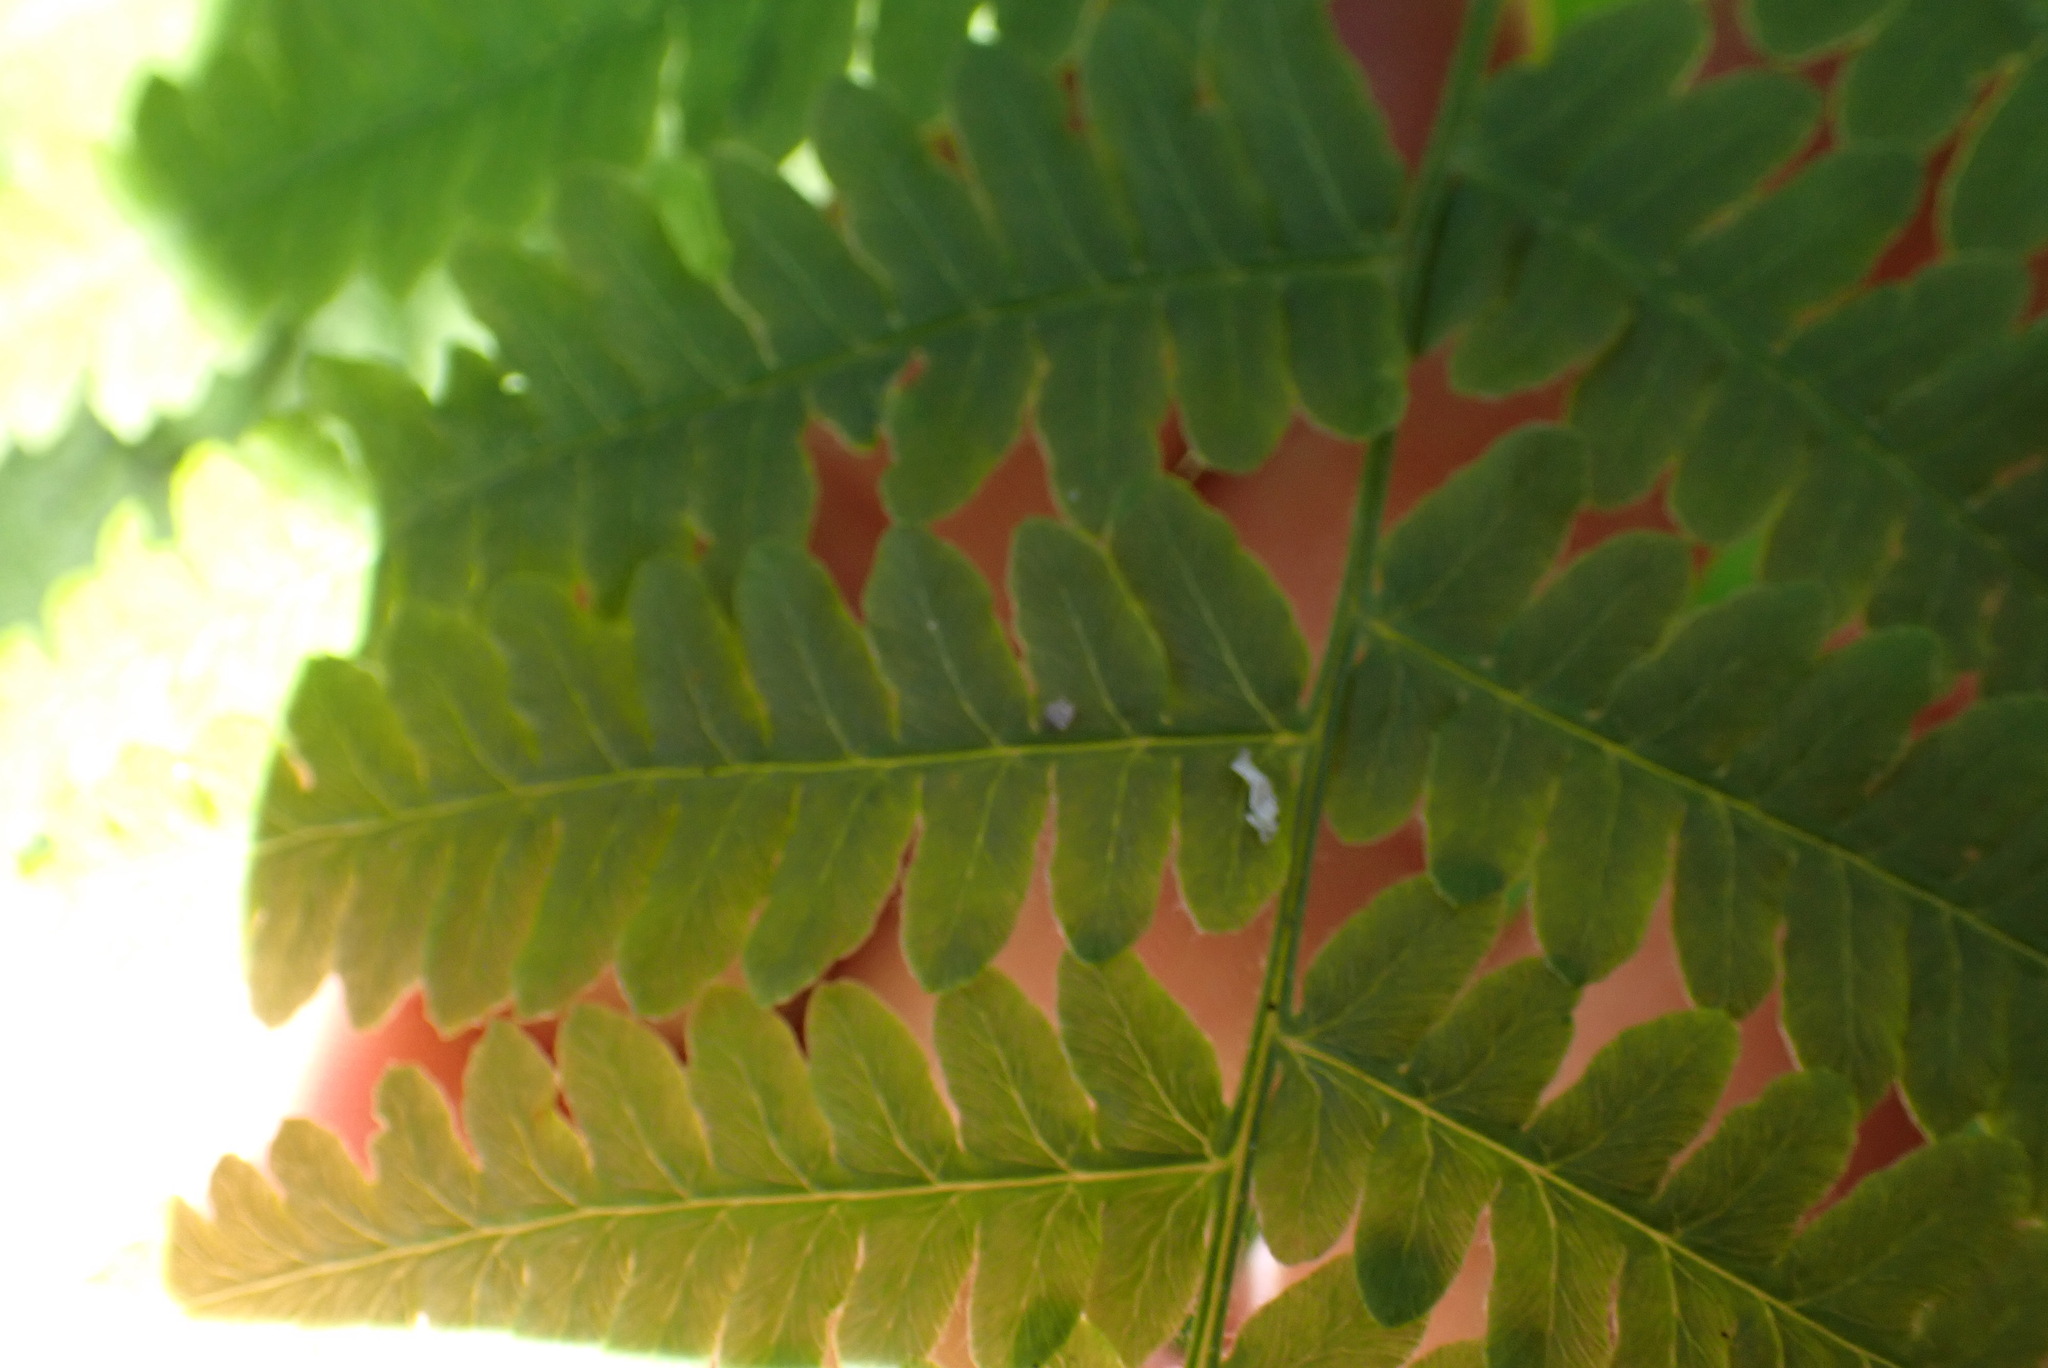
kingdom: Plantae
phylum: Tracheophyta
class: Polypodiopsida
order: Polypodiales
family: Dennstaedtiaceae
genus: Pteridium
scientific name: Pteridium aquilinum
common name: Bracken
